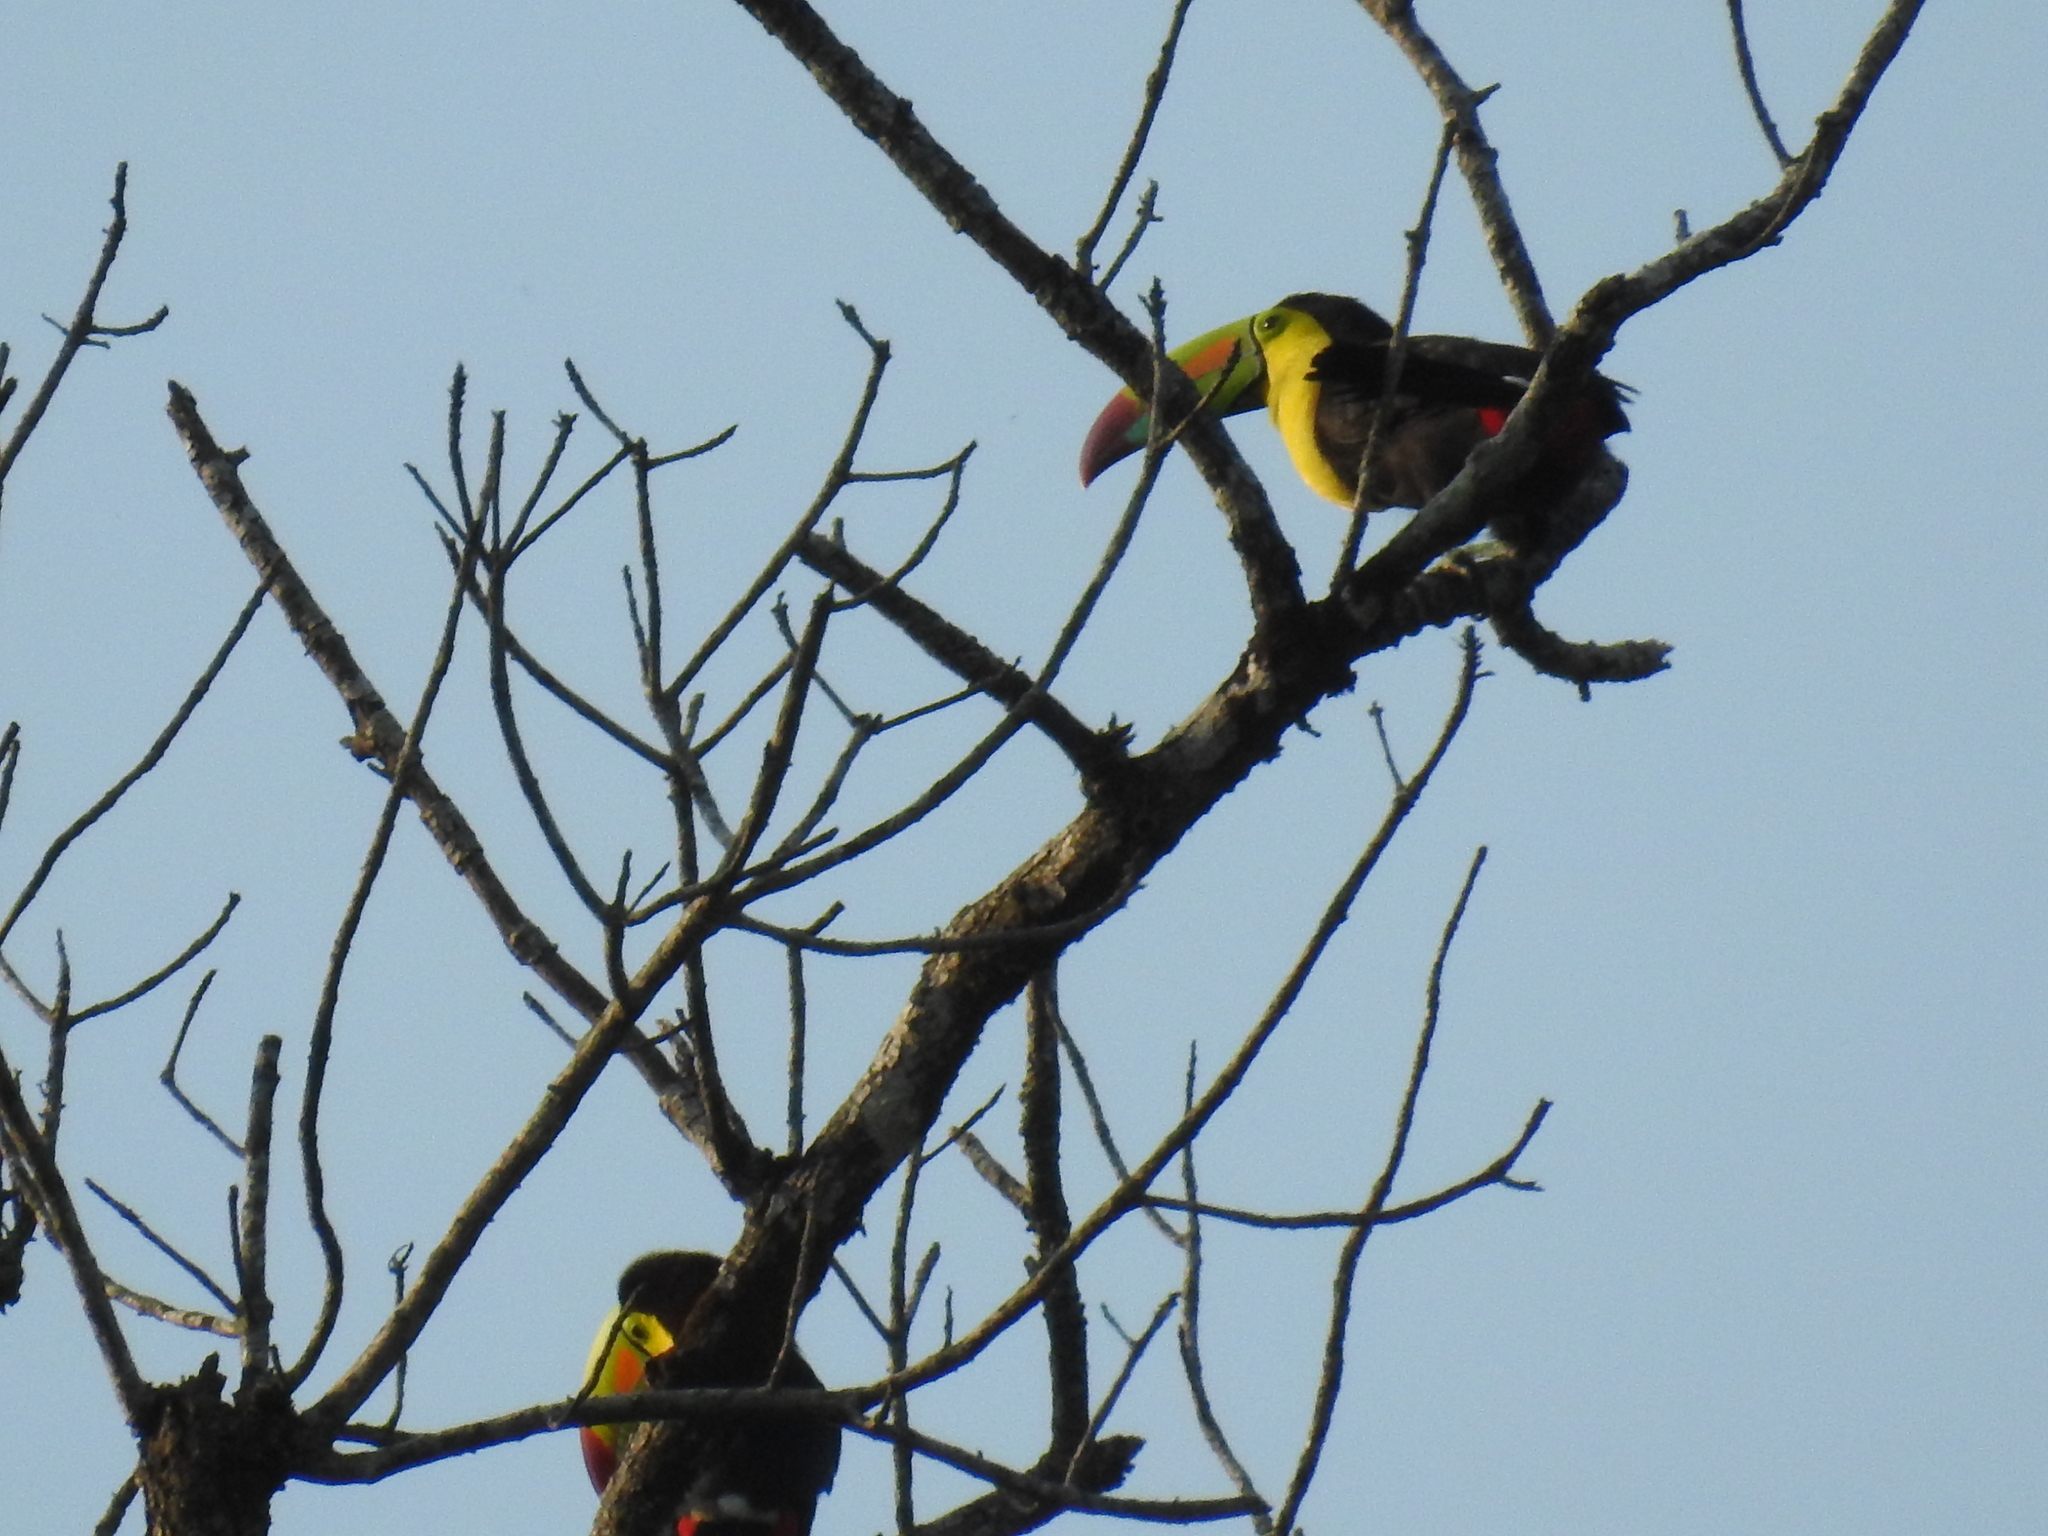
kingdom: Animalia
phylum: Chordata
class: Aves
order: Piciformes
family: Ramphastidae
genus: Ramphastos
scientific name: Ramphastos sulfuratus
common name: Keel-billed toucan
